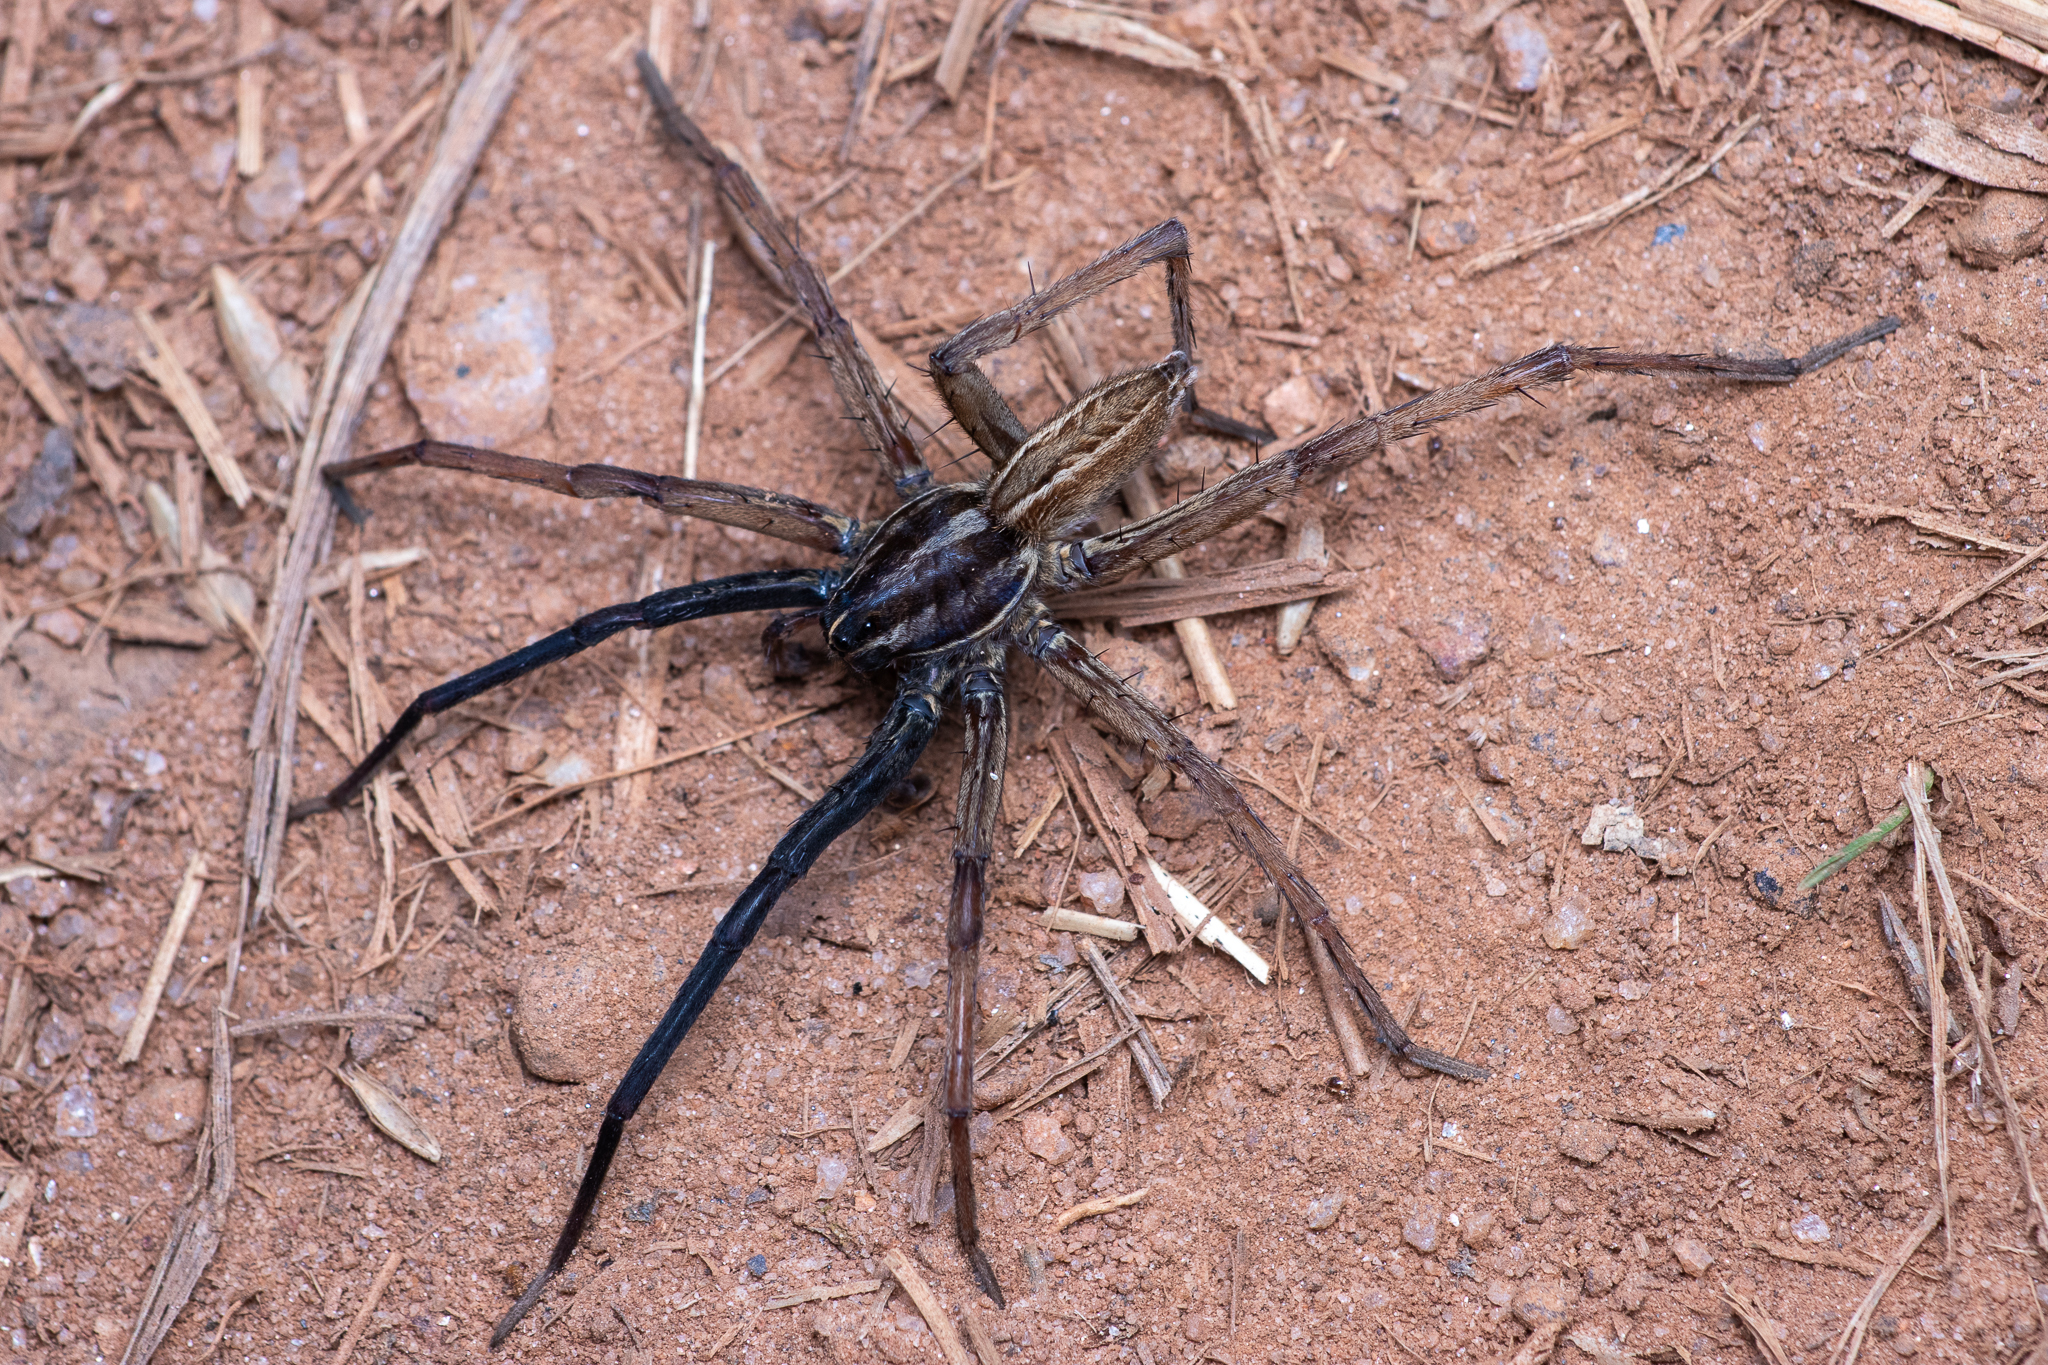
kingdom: Animalia
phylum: Arthropoda
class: Arachnida
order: Araneae
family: Lycosidae
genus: Rabidosa
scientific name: Rabidosa rabida
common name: Rabid wolf spider
